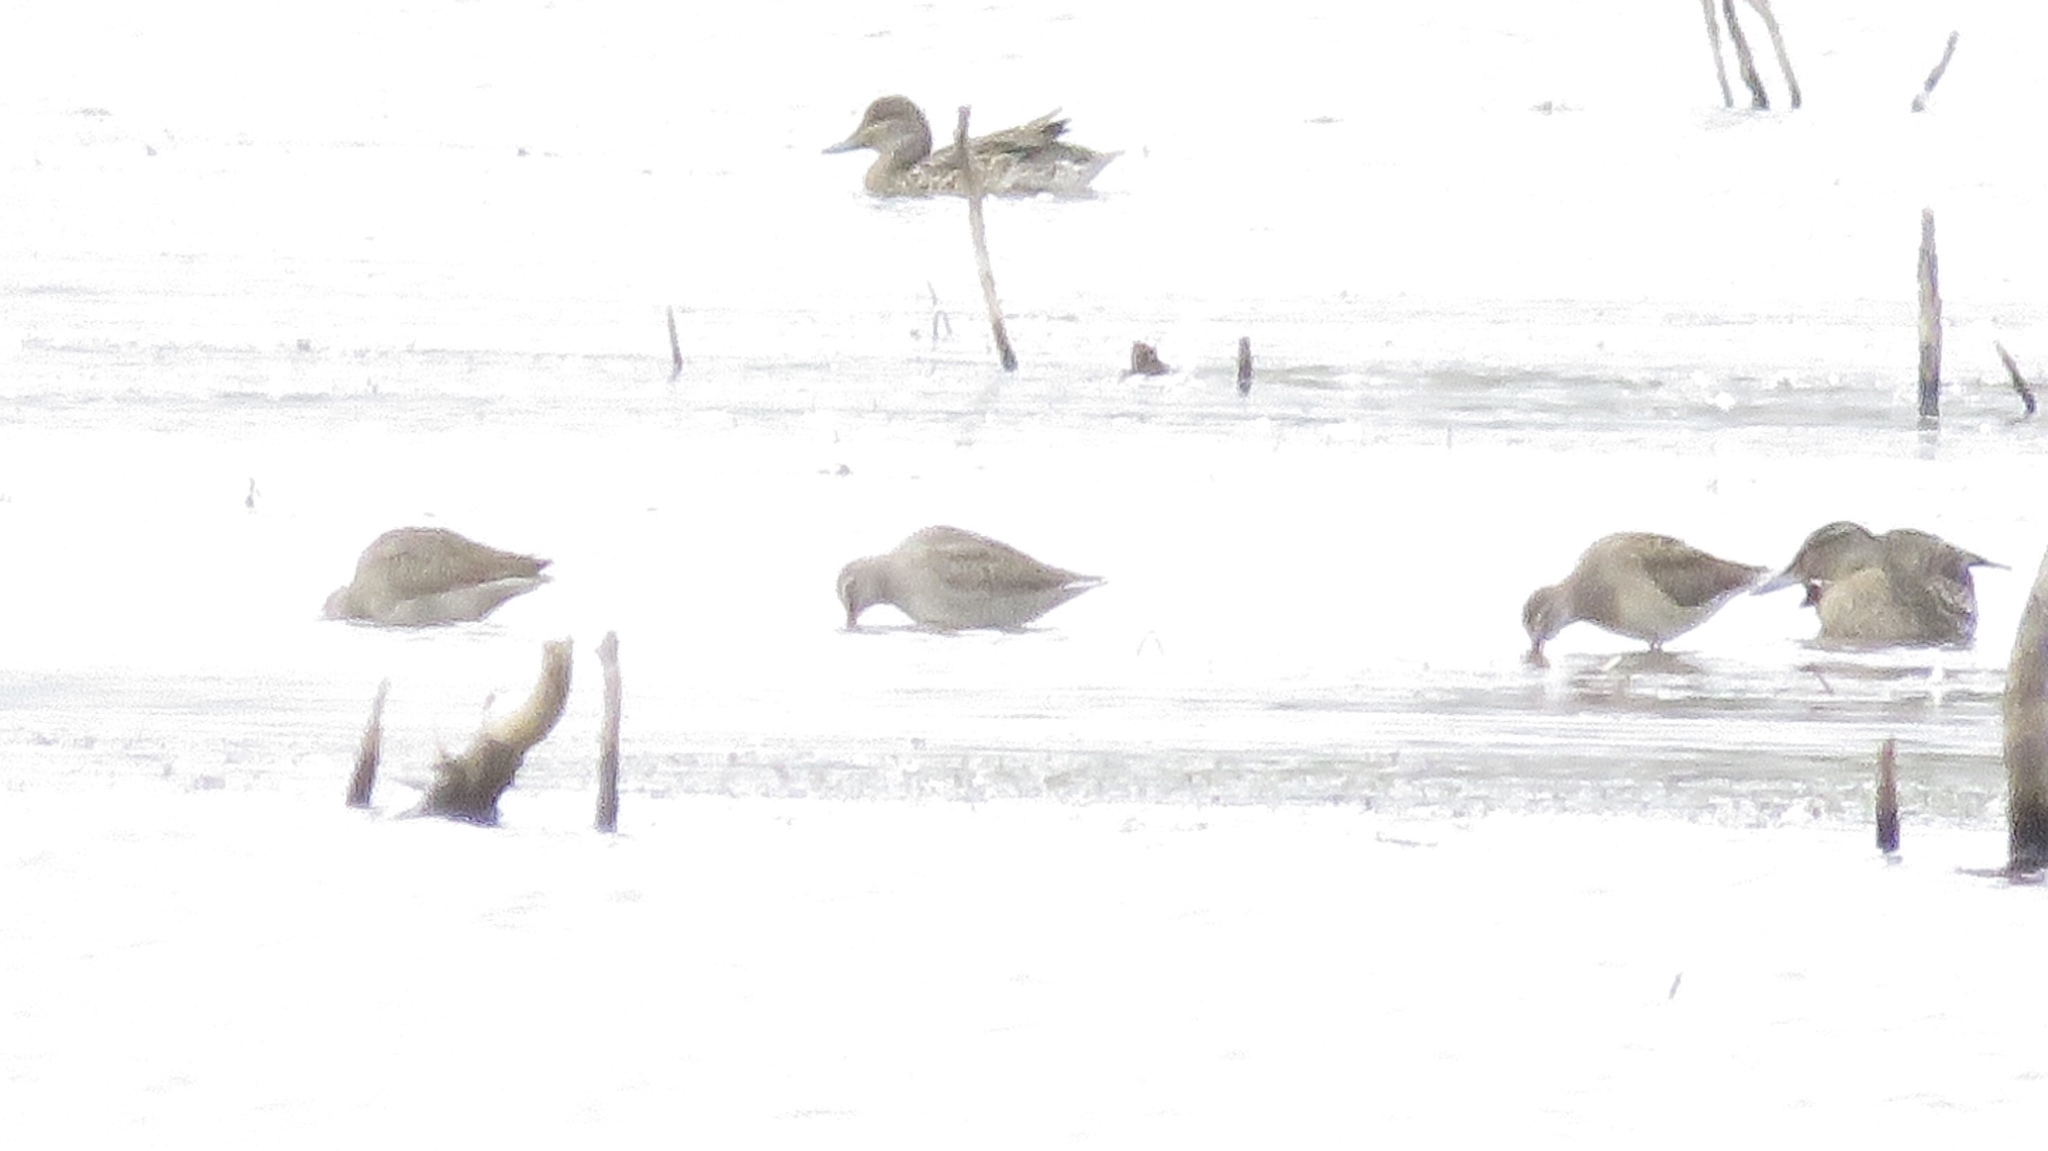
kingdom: Animalia
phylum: Chordata
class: Aves
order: Charadriiformes
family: Scolopacidae
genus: Limnodromus
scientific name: Limnodromus scolopaceus
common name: Long-billed dowitcher
